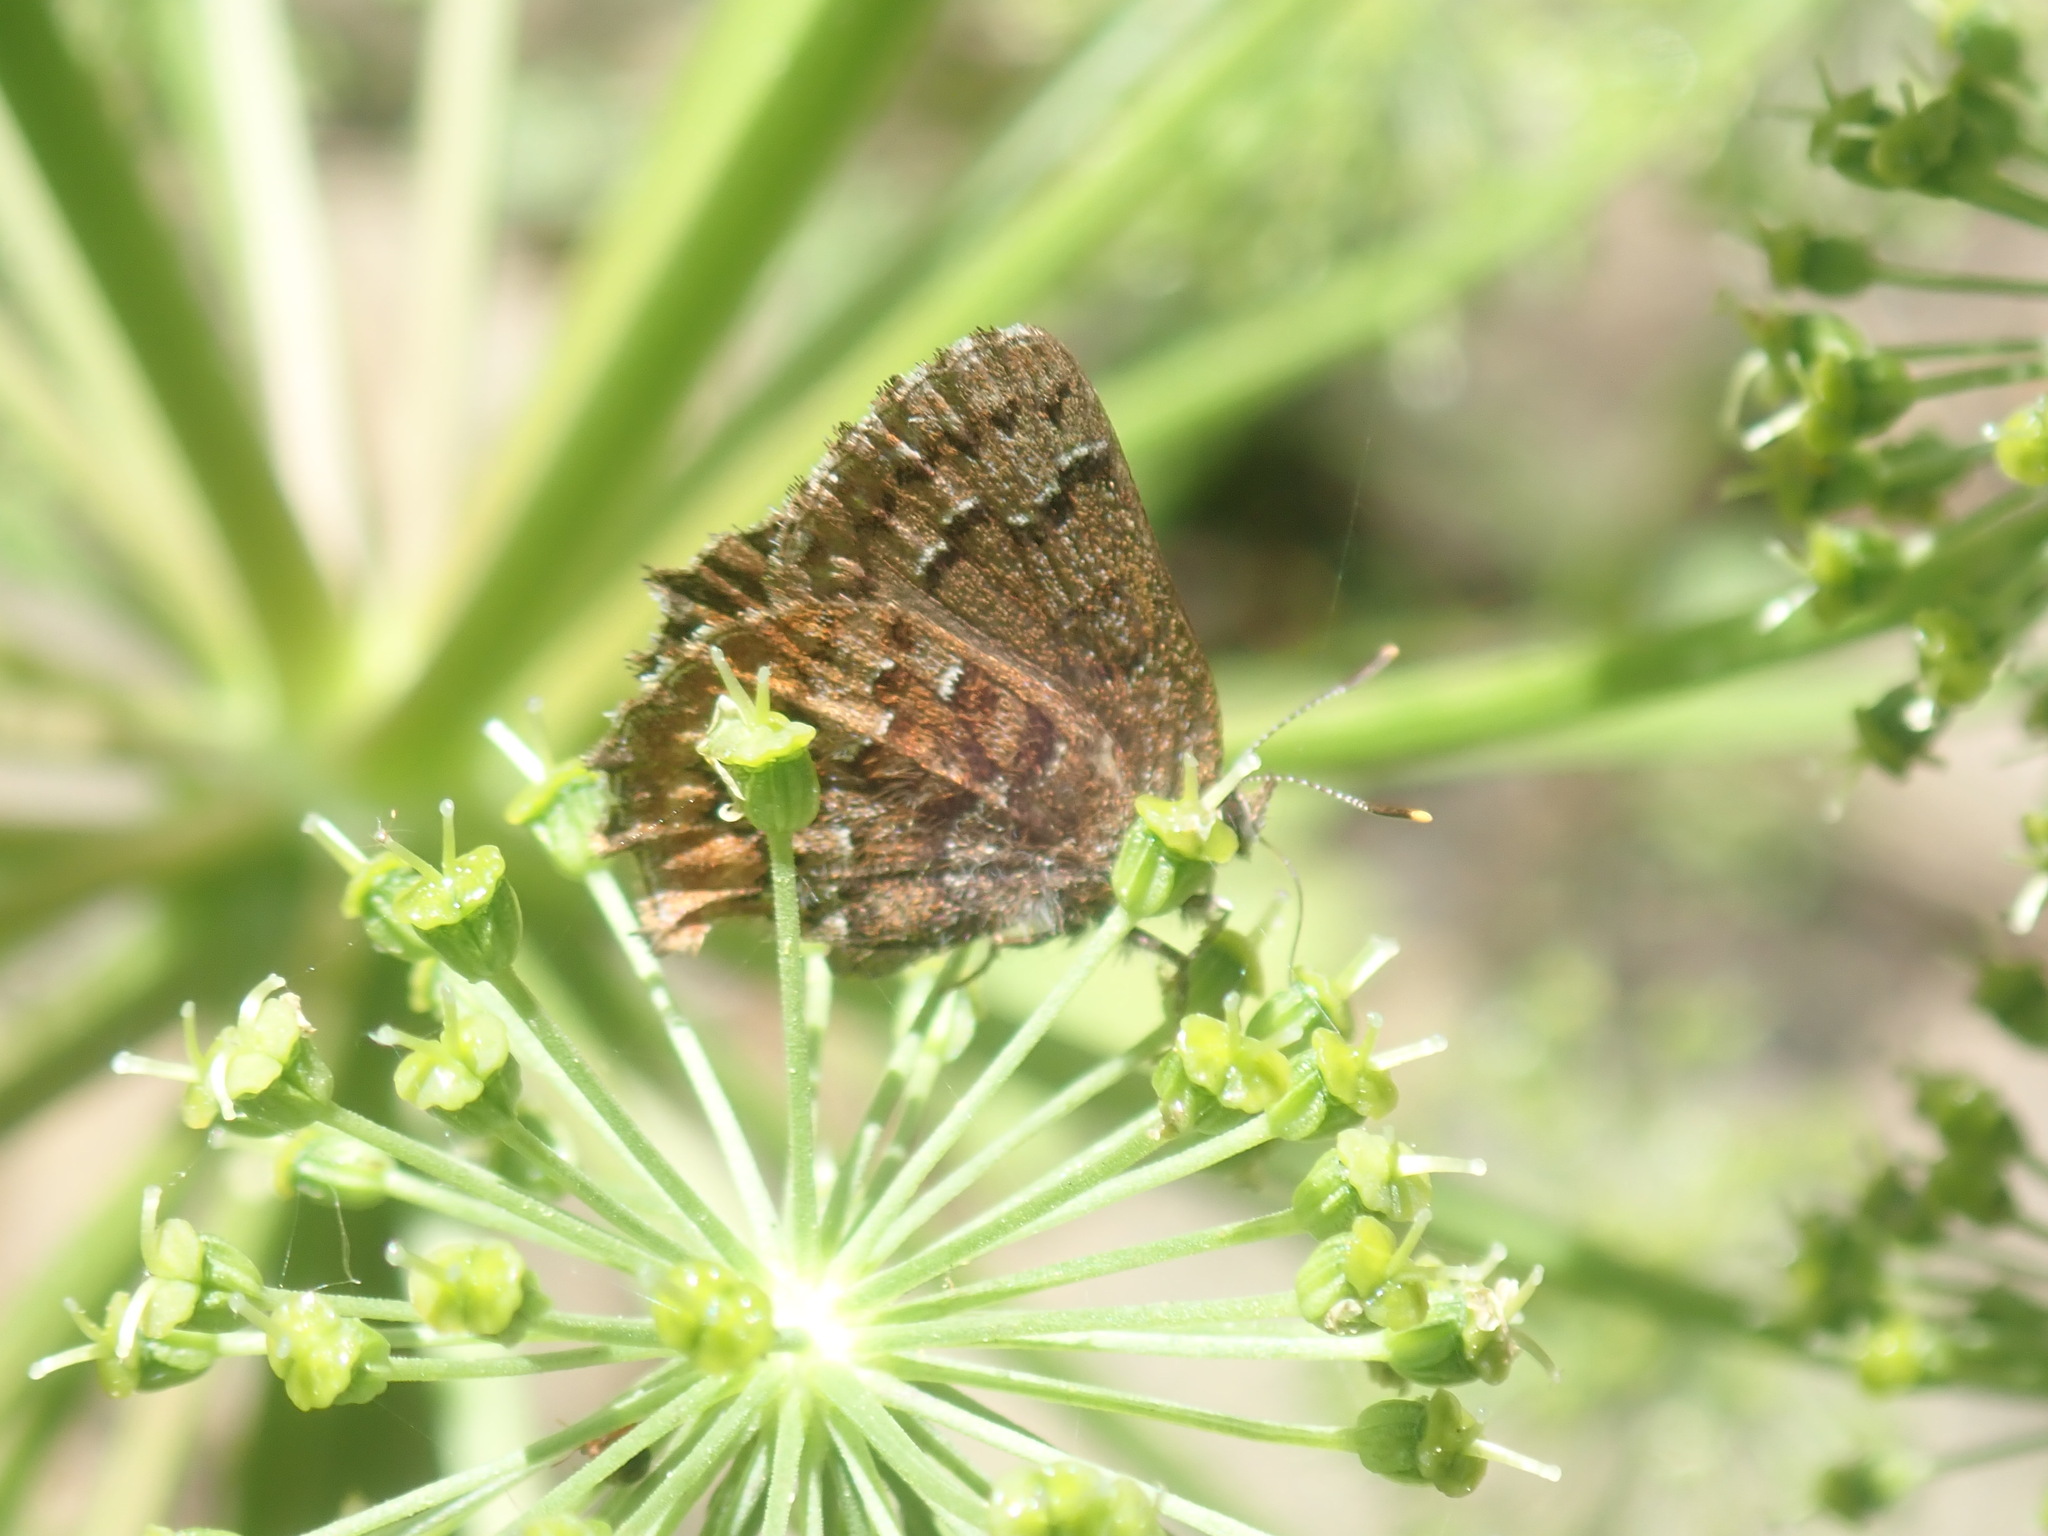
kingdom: Animalia
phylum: Arthropoda
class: Insecta
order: Lepidoptera
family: Lycaenidae
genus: Incisalia
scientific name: Incisalia niphon
